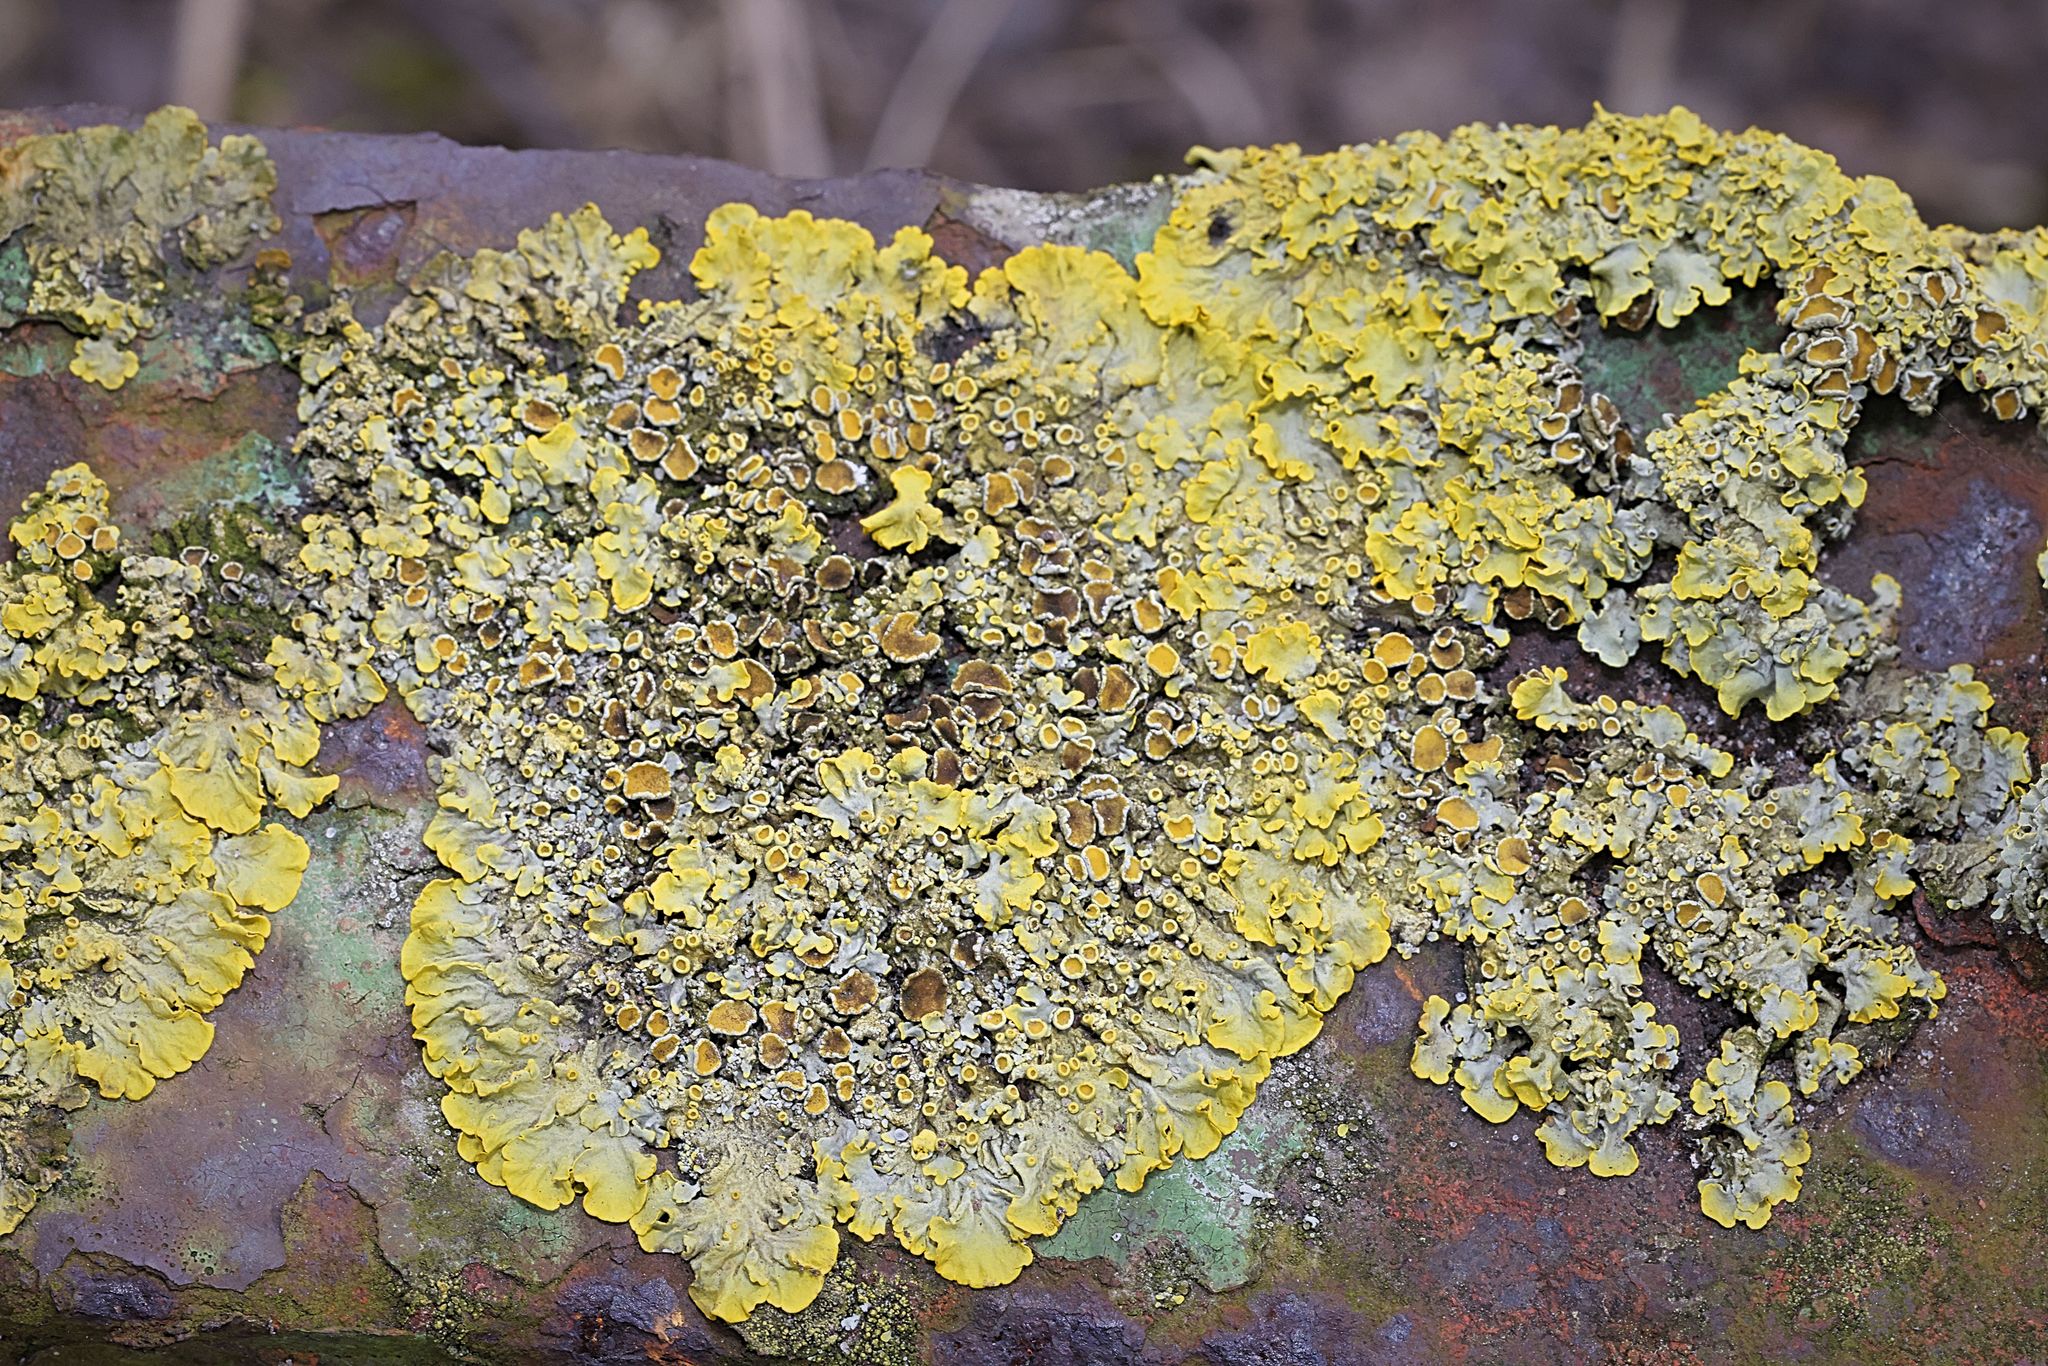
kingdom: Fungi
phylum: Ascomycota
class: Lecanoromycetes
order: Teloschistales
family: Teloschistaceae
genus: Xanthoria
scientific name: Xanthoria parietina
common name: Common orange lichen
